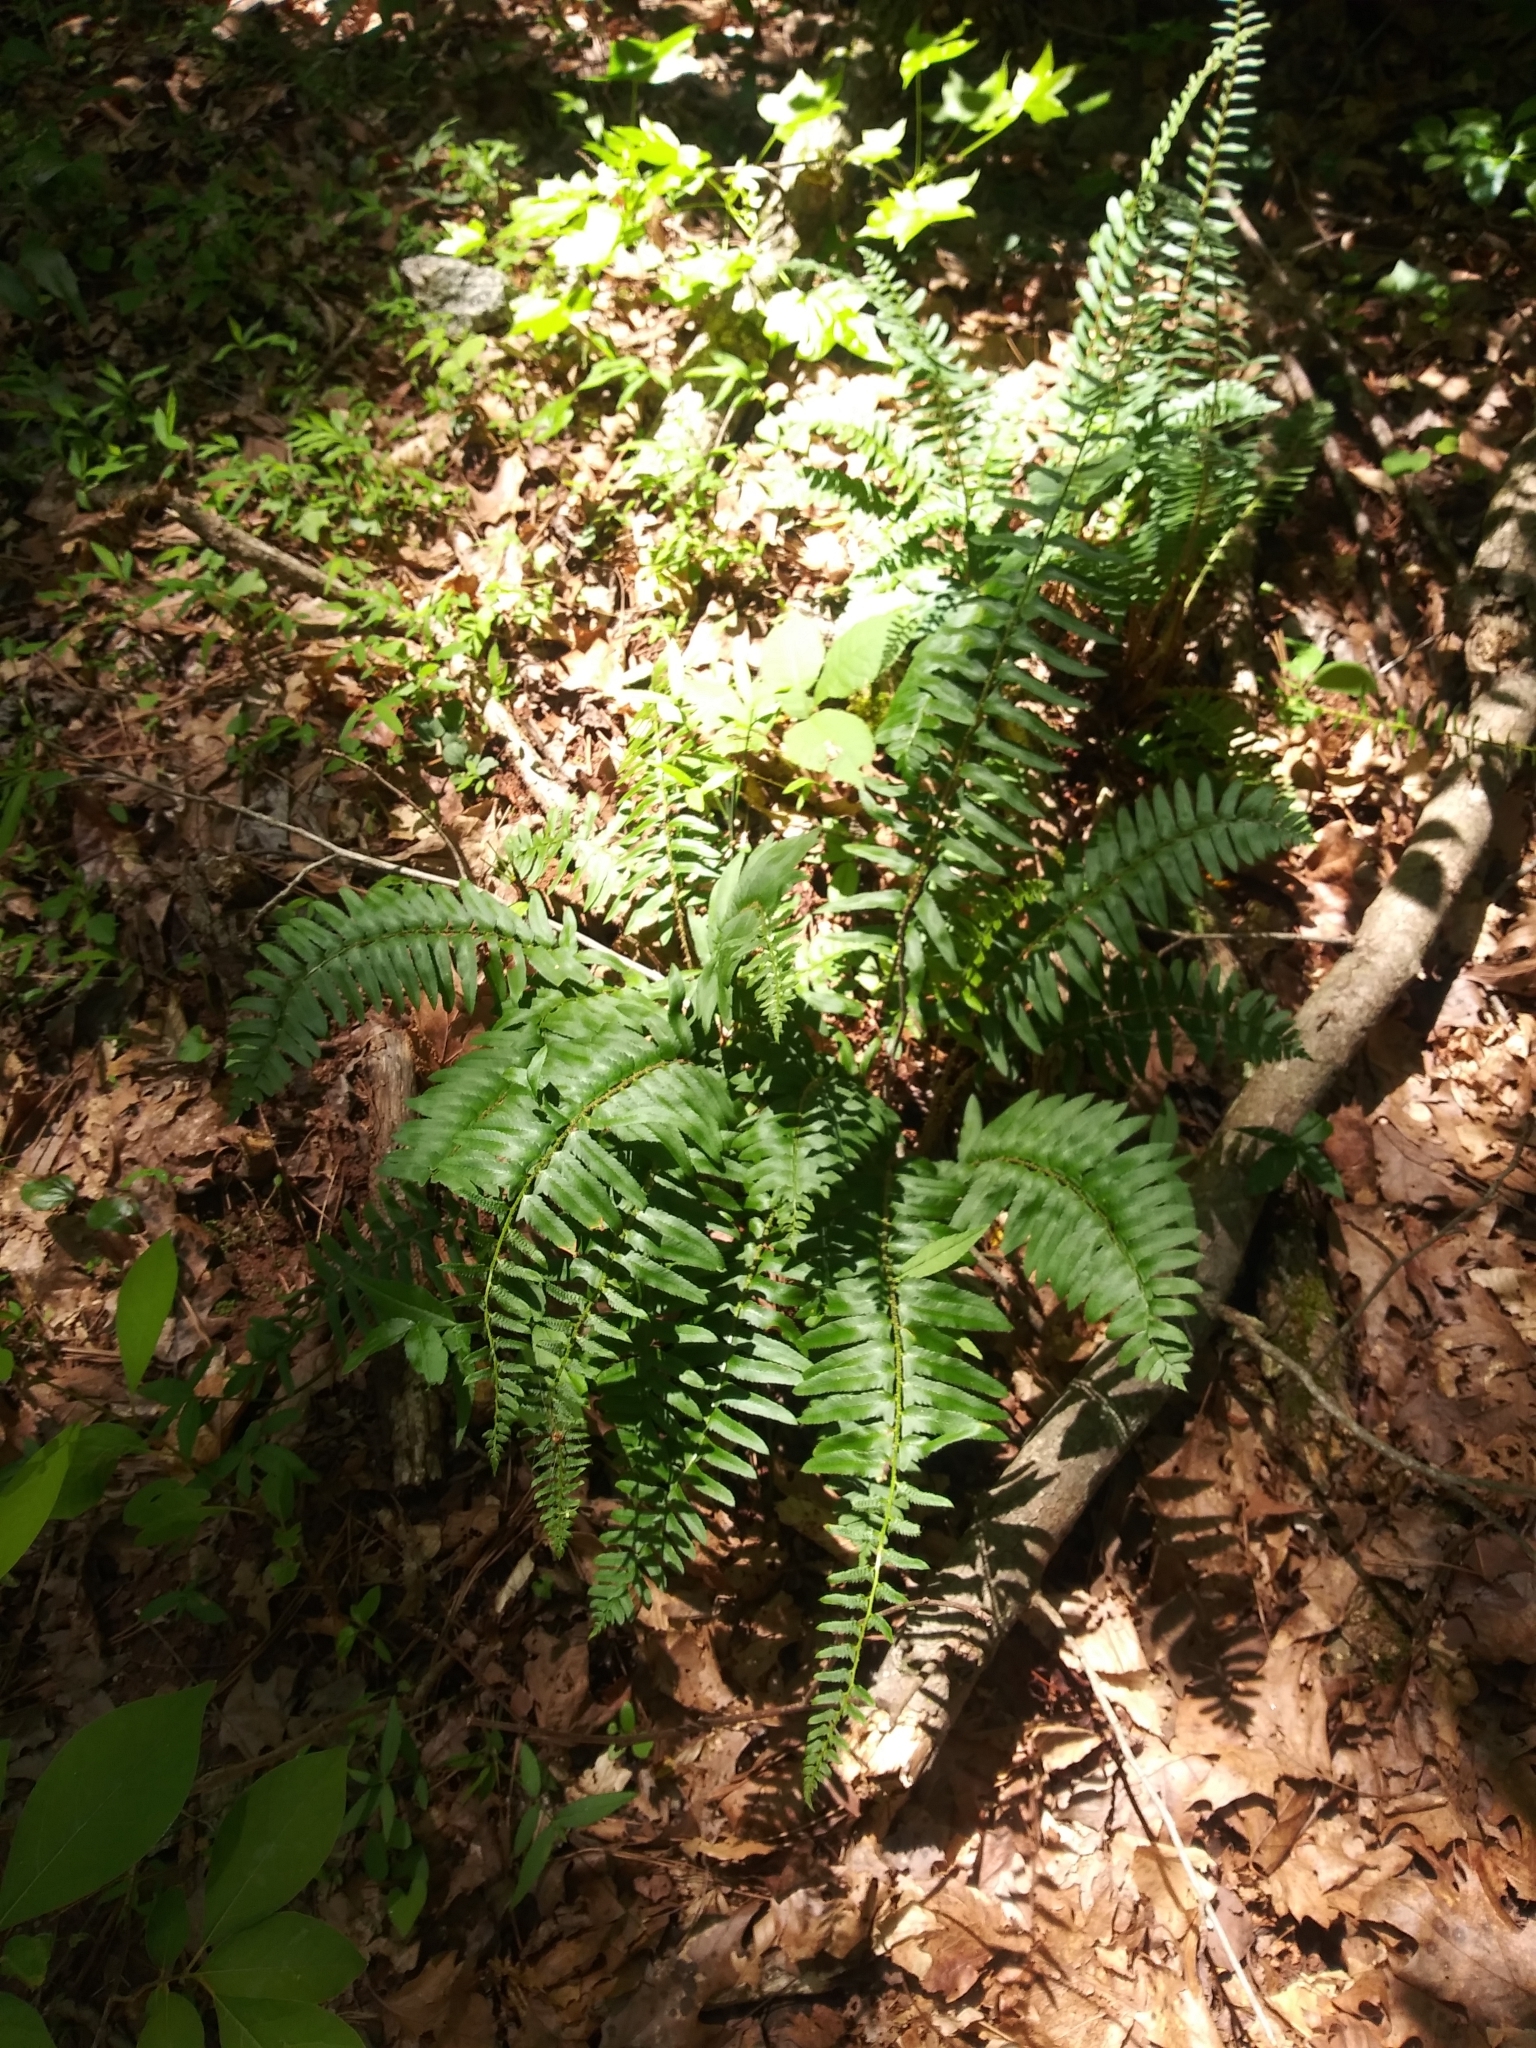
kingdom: Plantae
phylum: Tracheophyta
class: Polypodiopsida
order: Polypodiales
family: Dryopteridaceae
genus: Polystichum
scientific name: Polystichum acrostichoides
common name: Christmas fern
